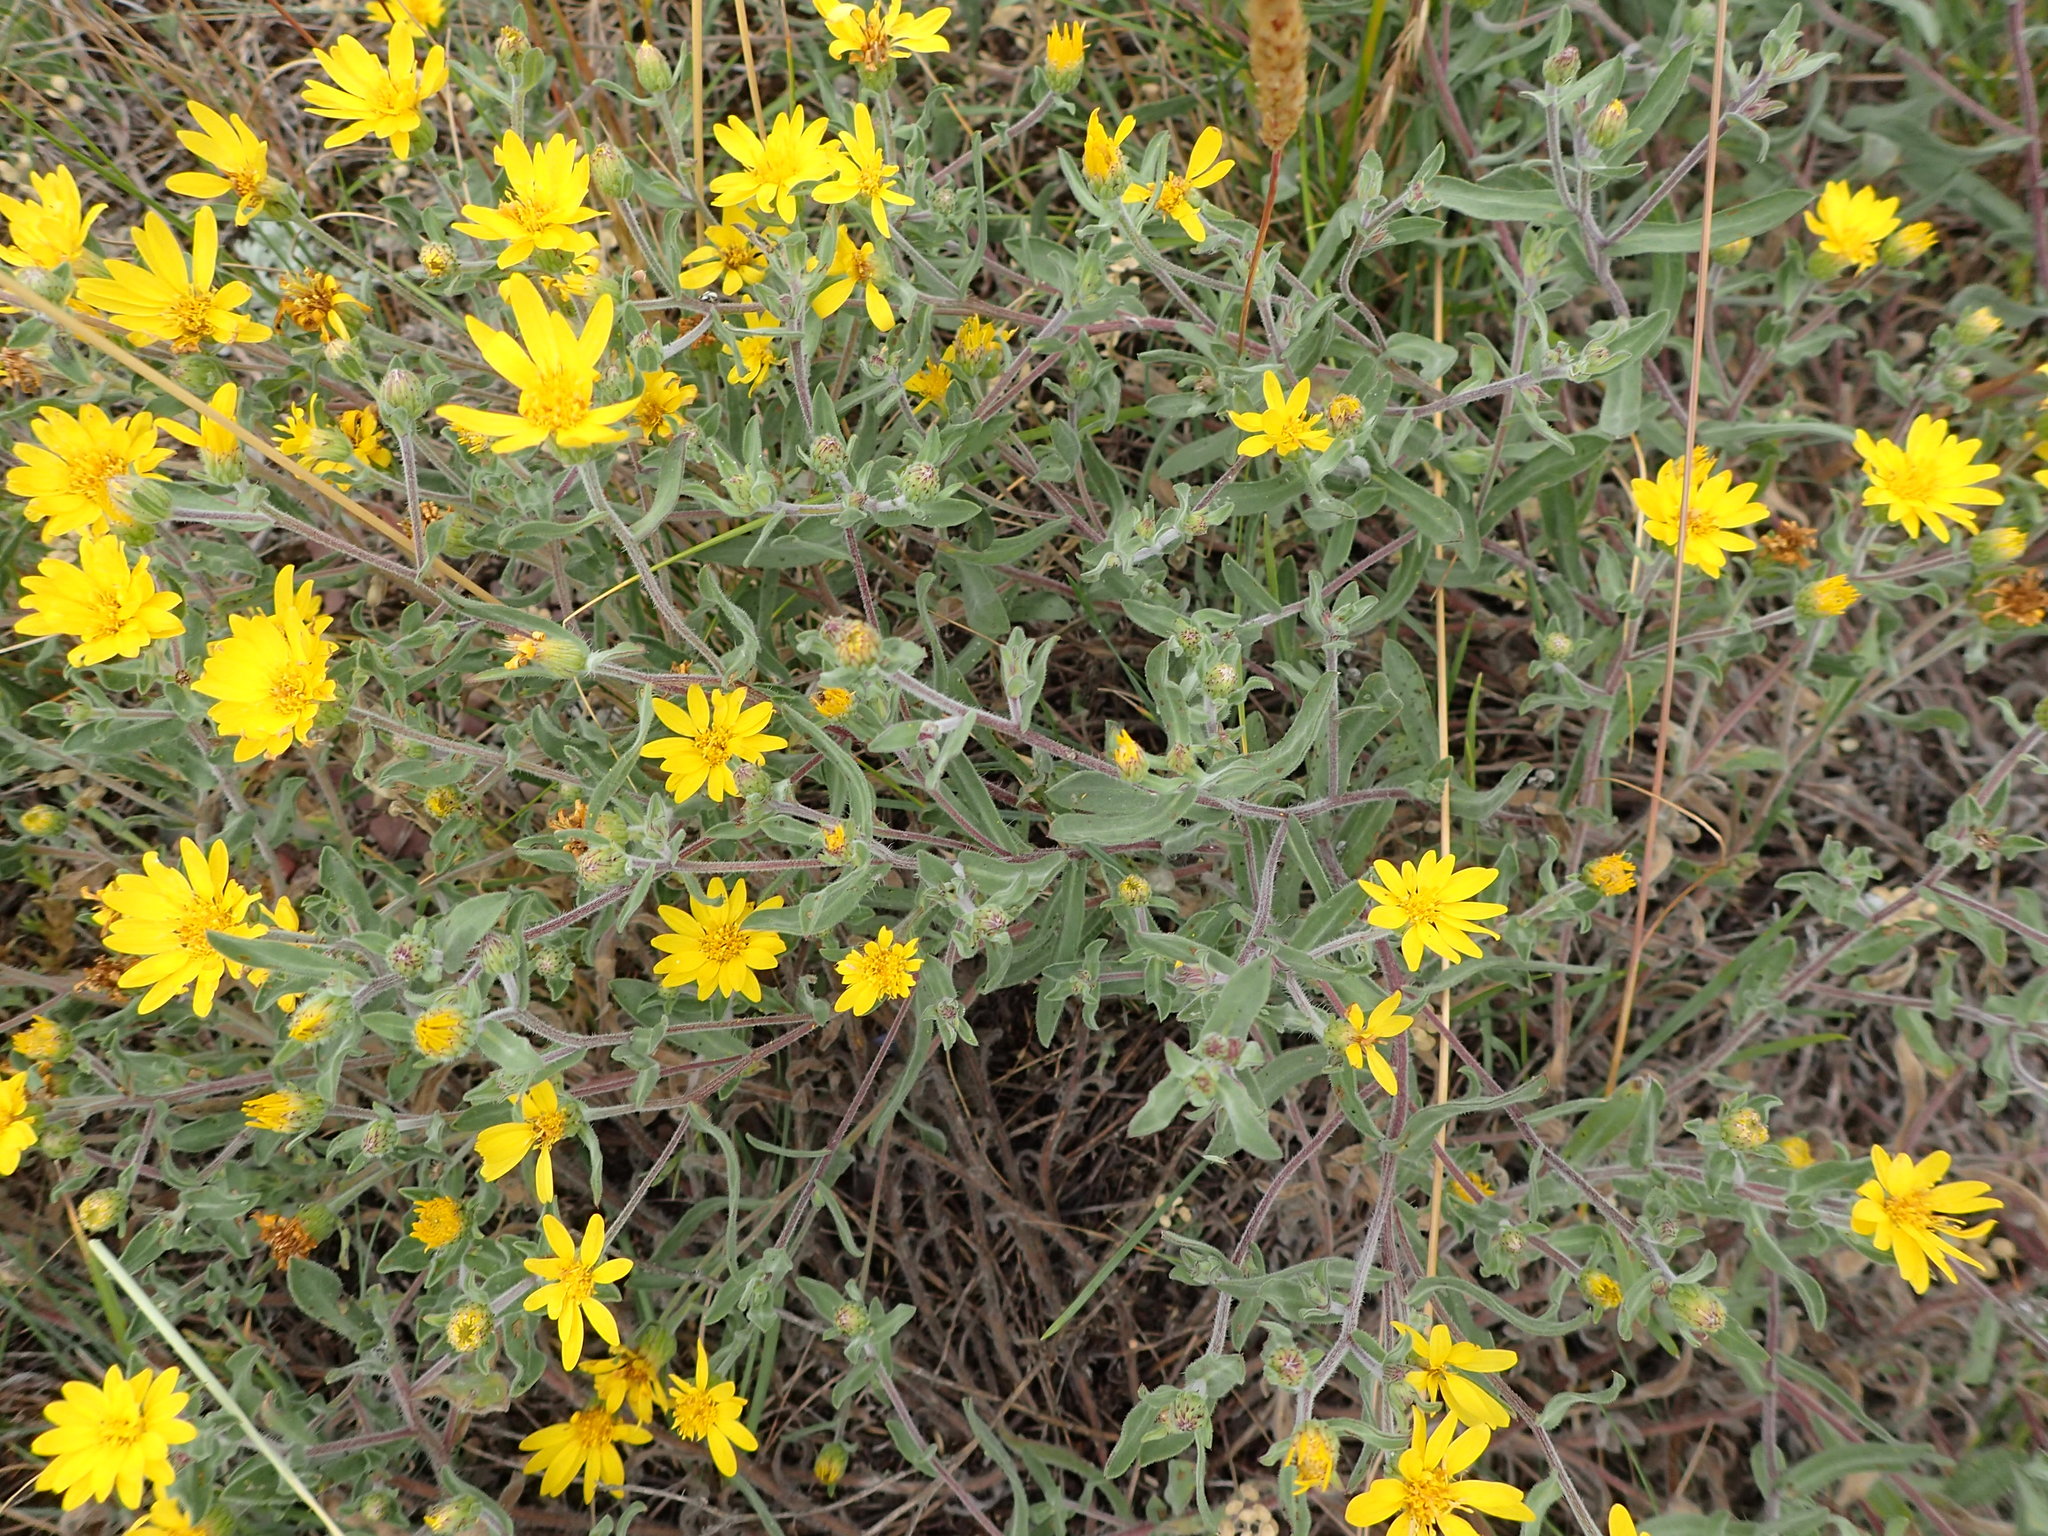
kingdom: Plantae
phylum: Tracheophyta
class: Magnoliopsida
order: Asterales
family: Asteraceae
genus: Heterotheca
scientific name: Heterotheca villosa
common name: Hairy false goldenaster
